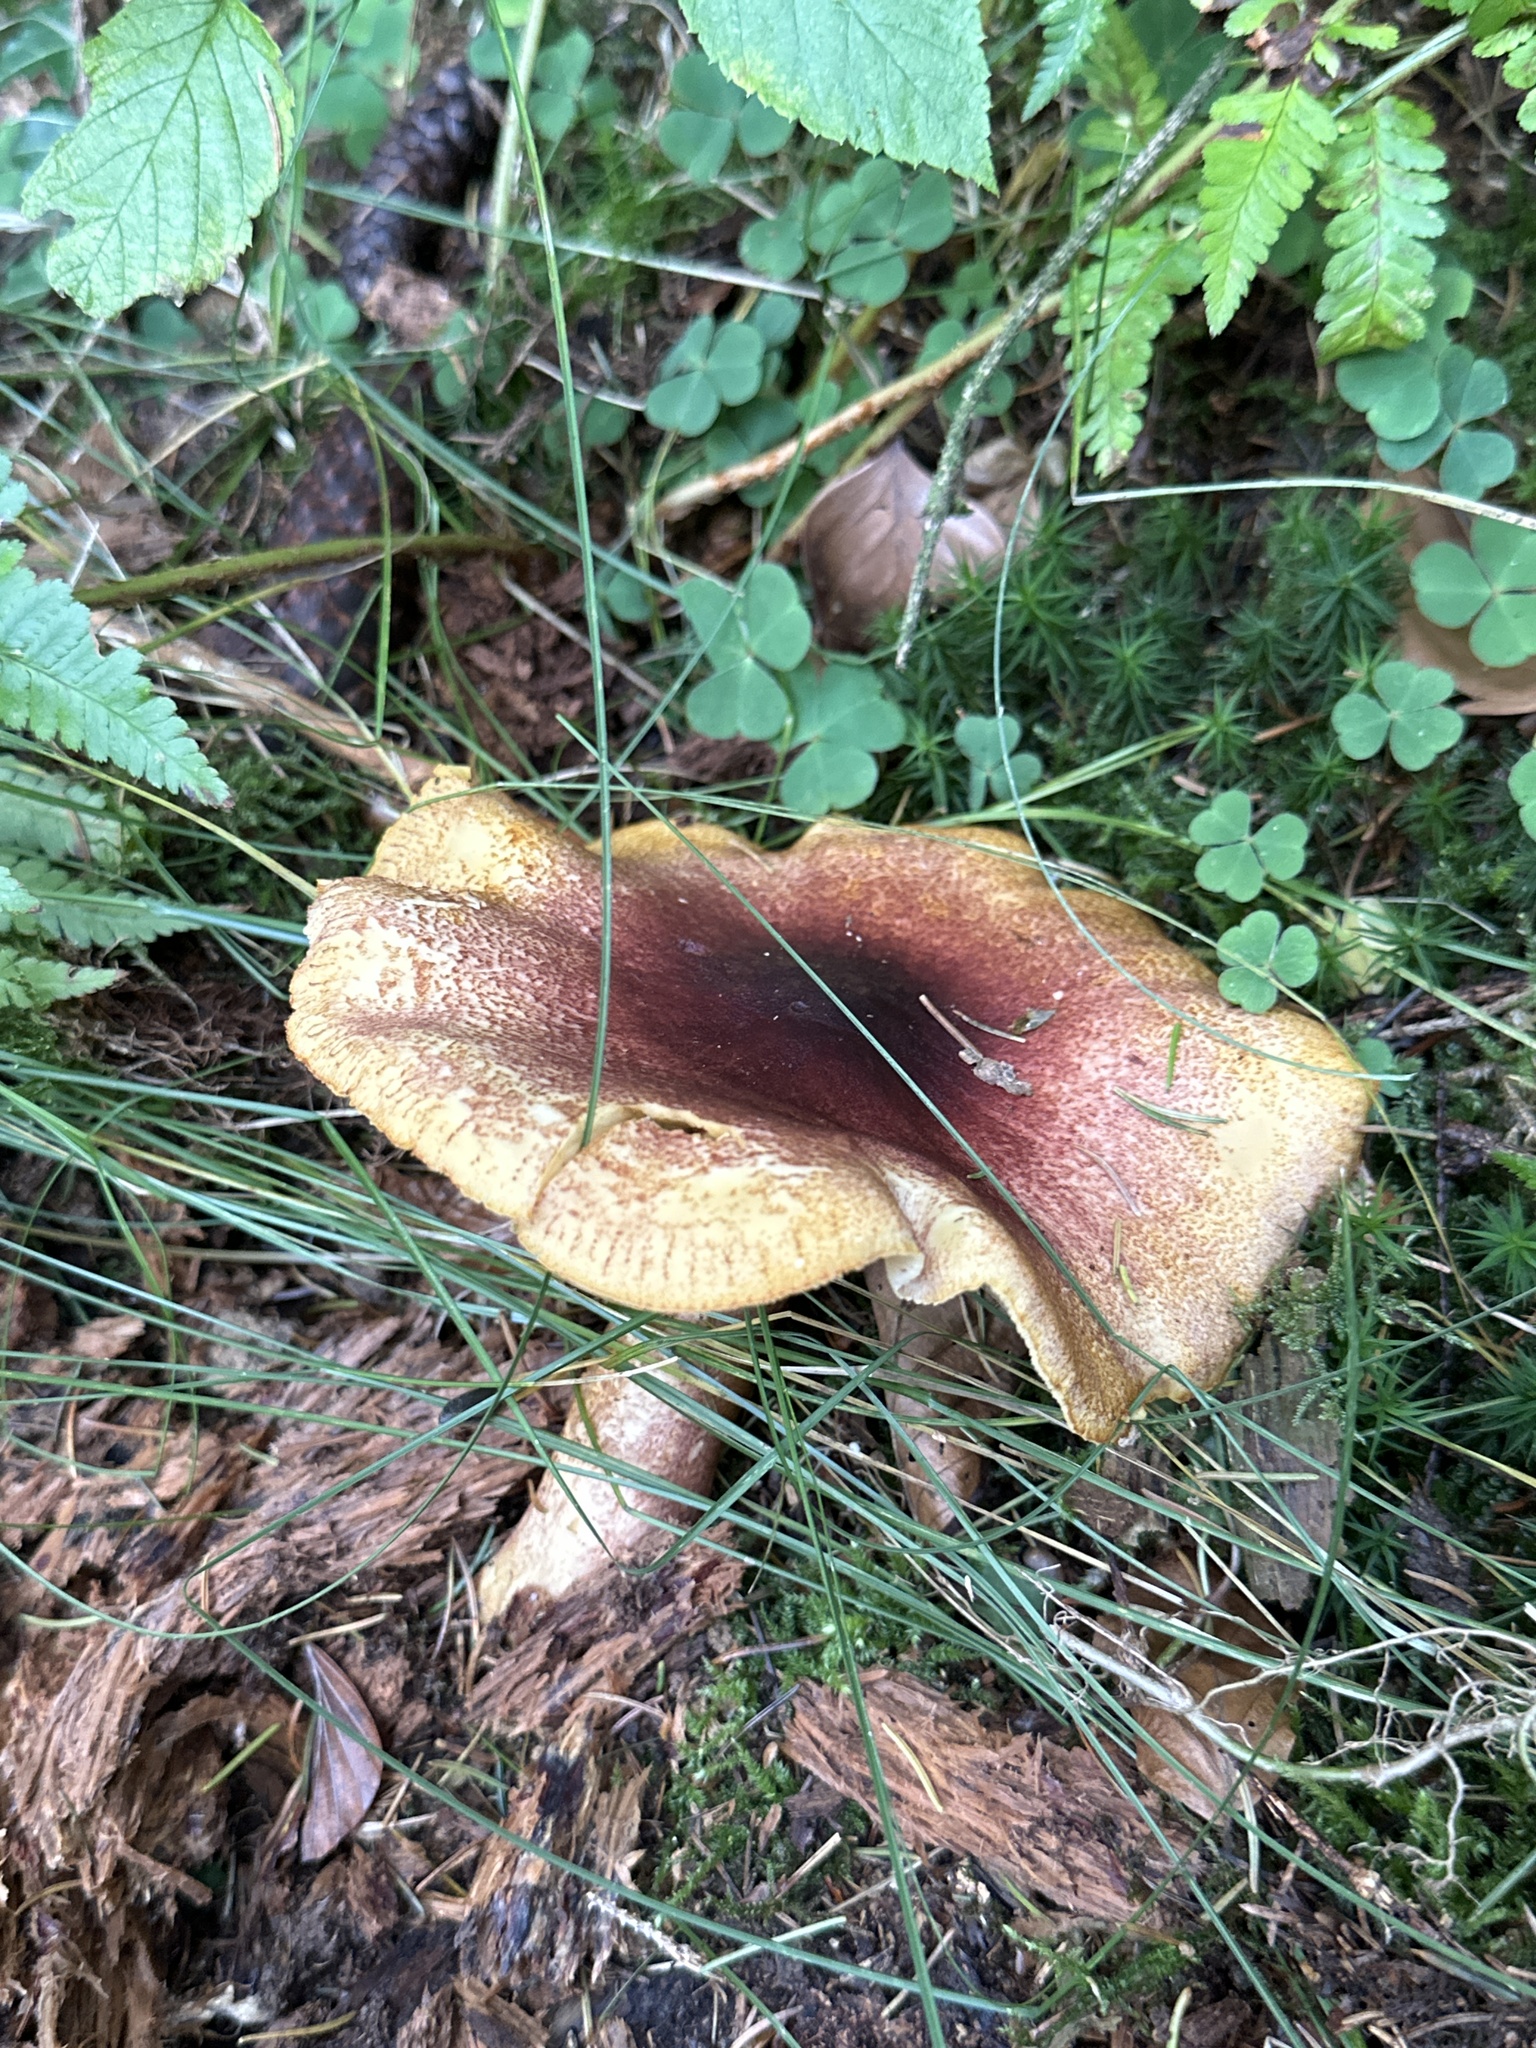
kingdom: Fungi
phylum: Basidiomycota
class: Agaricomycetes
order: Agaricales
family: Tricholomataceae
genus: Tricholomopsis
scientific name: Tricholomopsis rutilans
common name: Plums and custard
